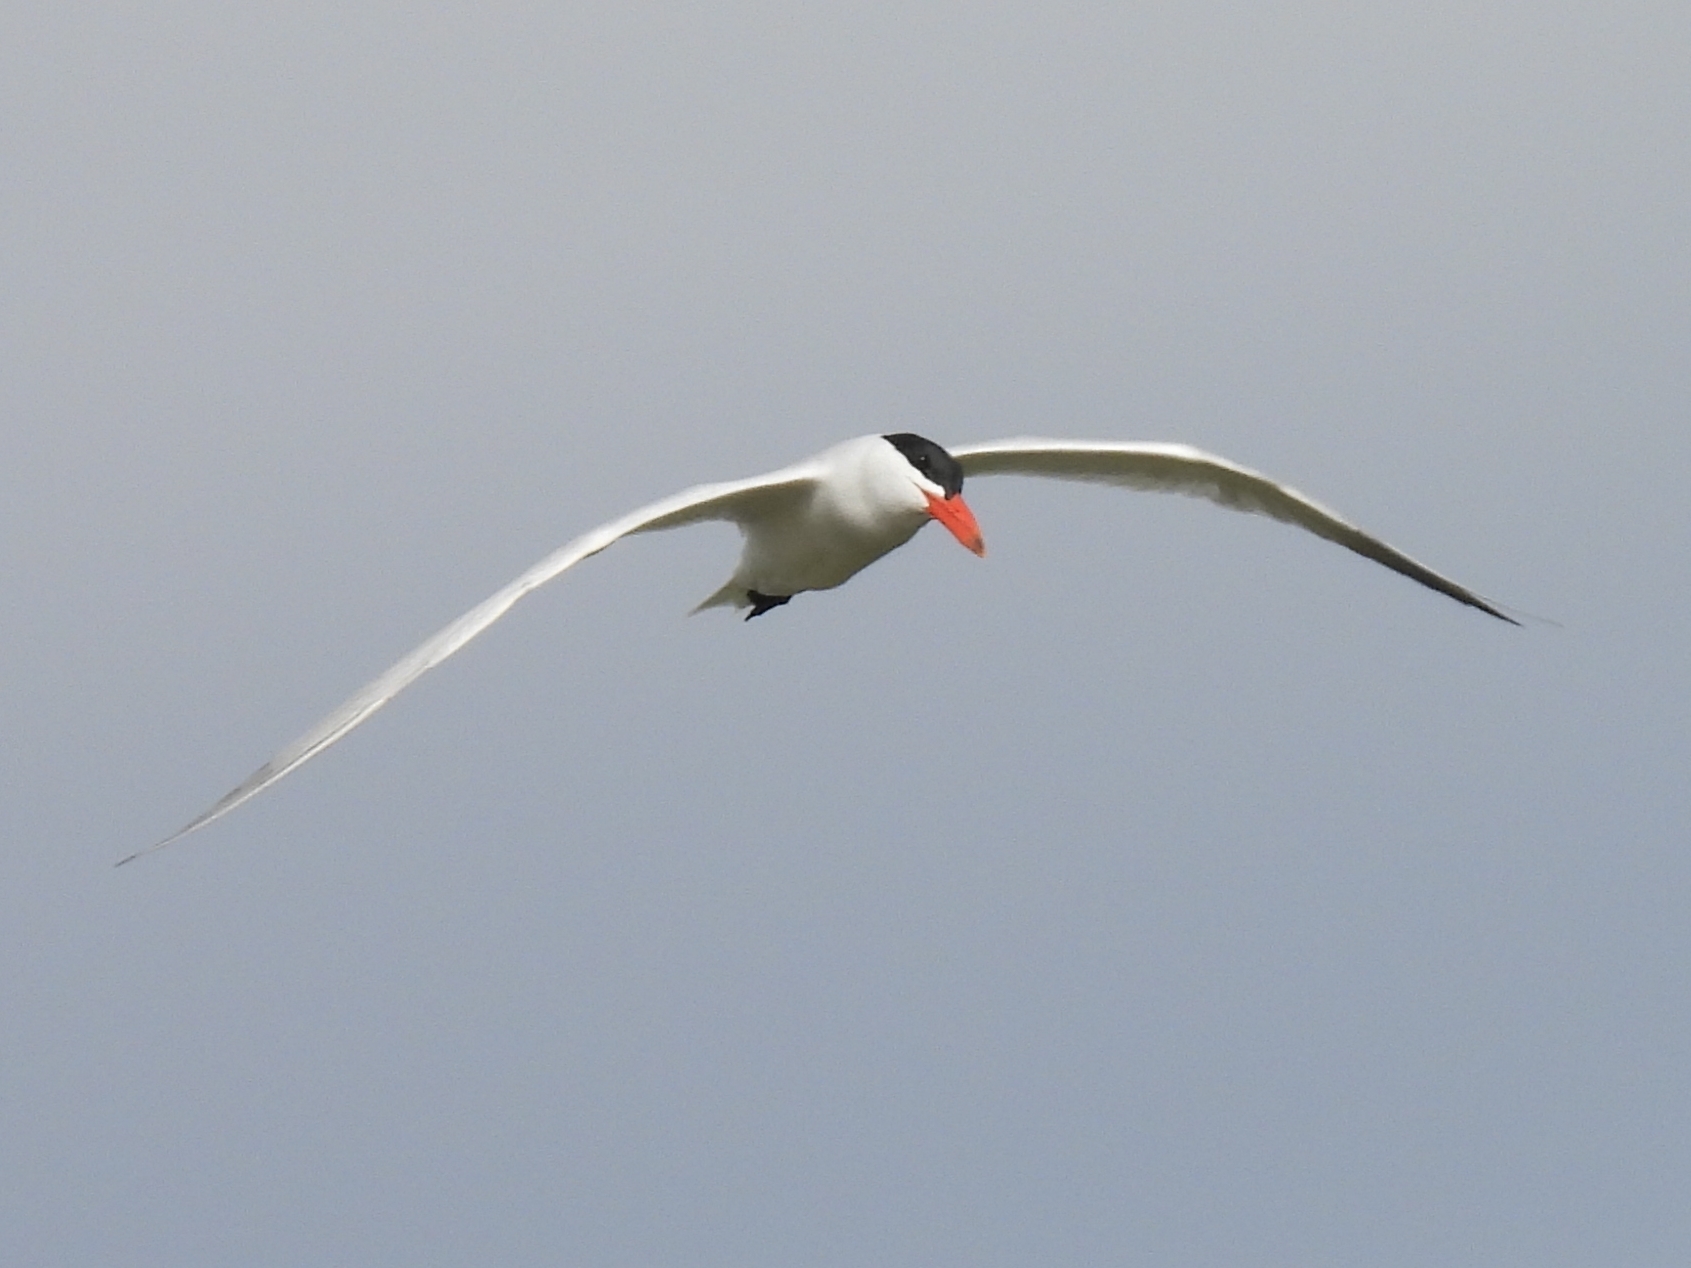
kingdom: Animalia
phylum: Chordata
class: Aves
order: Charadriiformes
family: Laridae
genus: Hydroprogne
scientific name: Hydroprogne caspia
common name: Caspian tern
